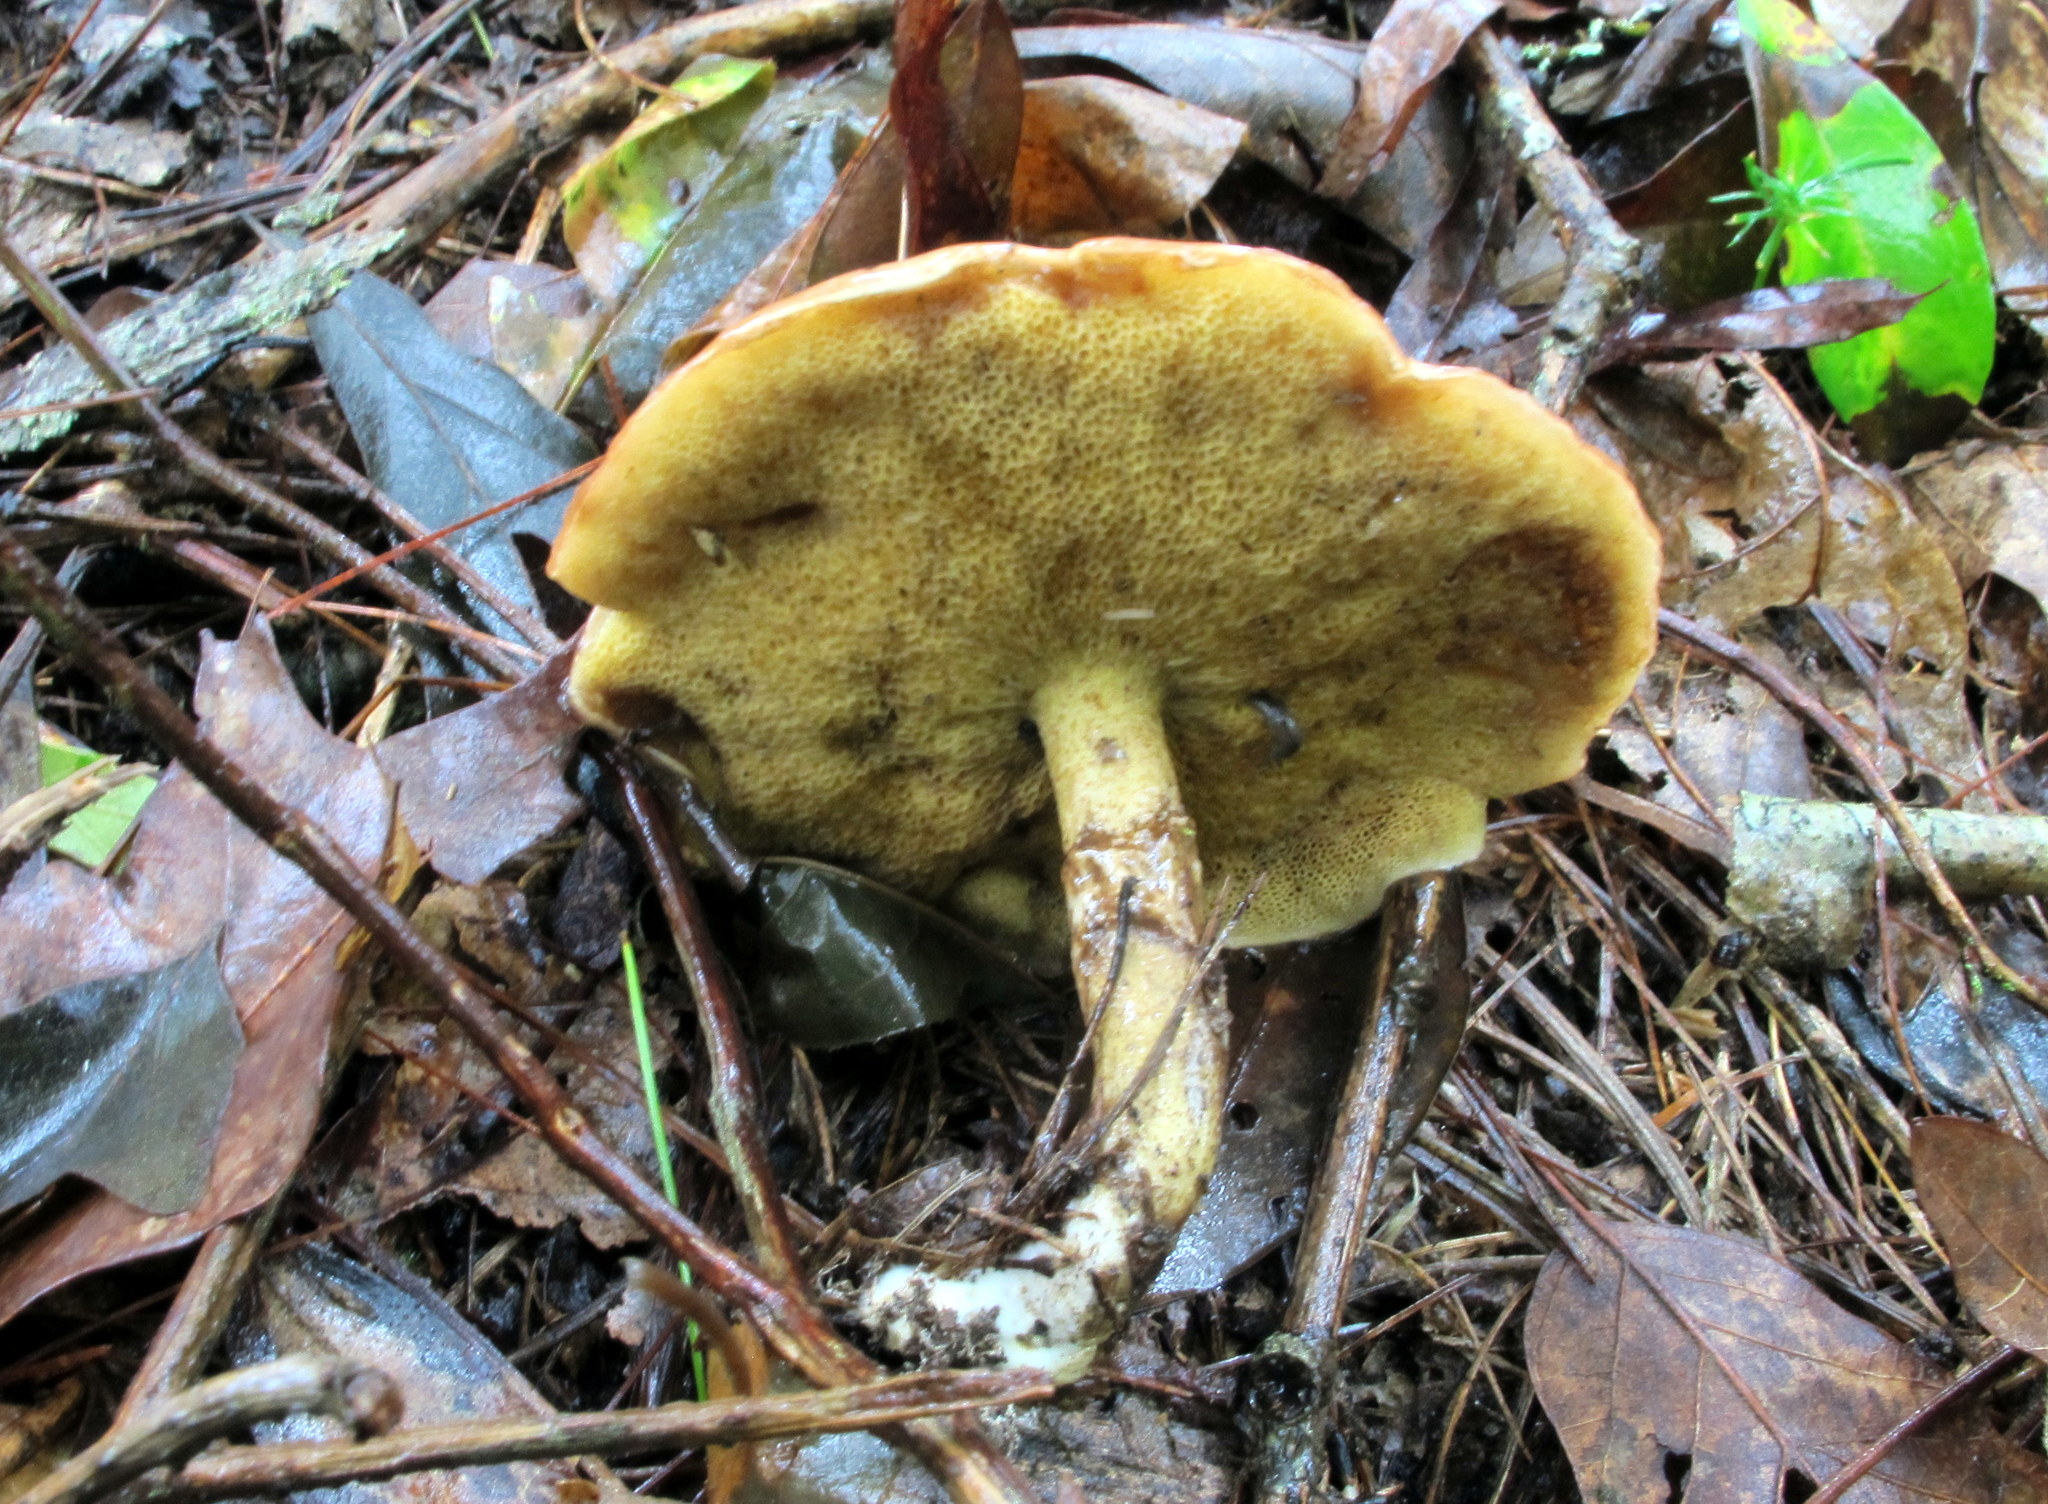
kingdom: Fungi
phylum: Basidiomycota
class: Agaricomycetes
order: Boletales
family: Suillaceae
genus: Suillus
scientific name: Suillus acidus
